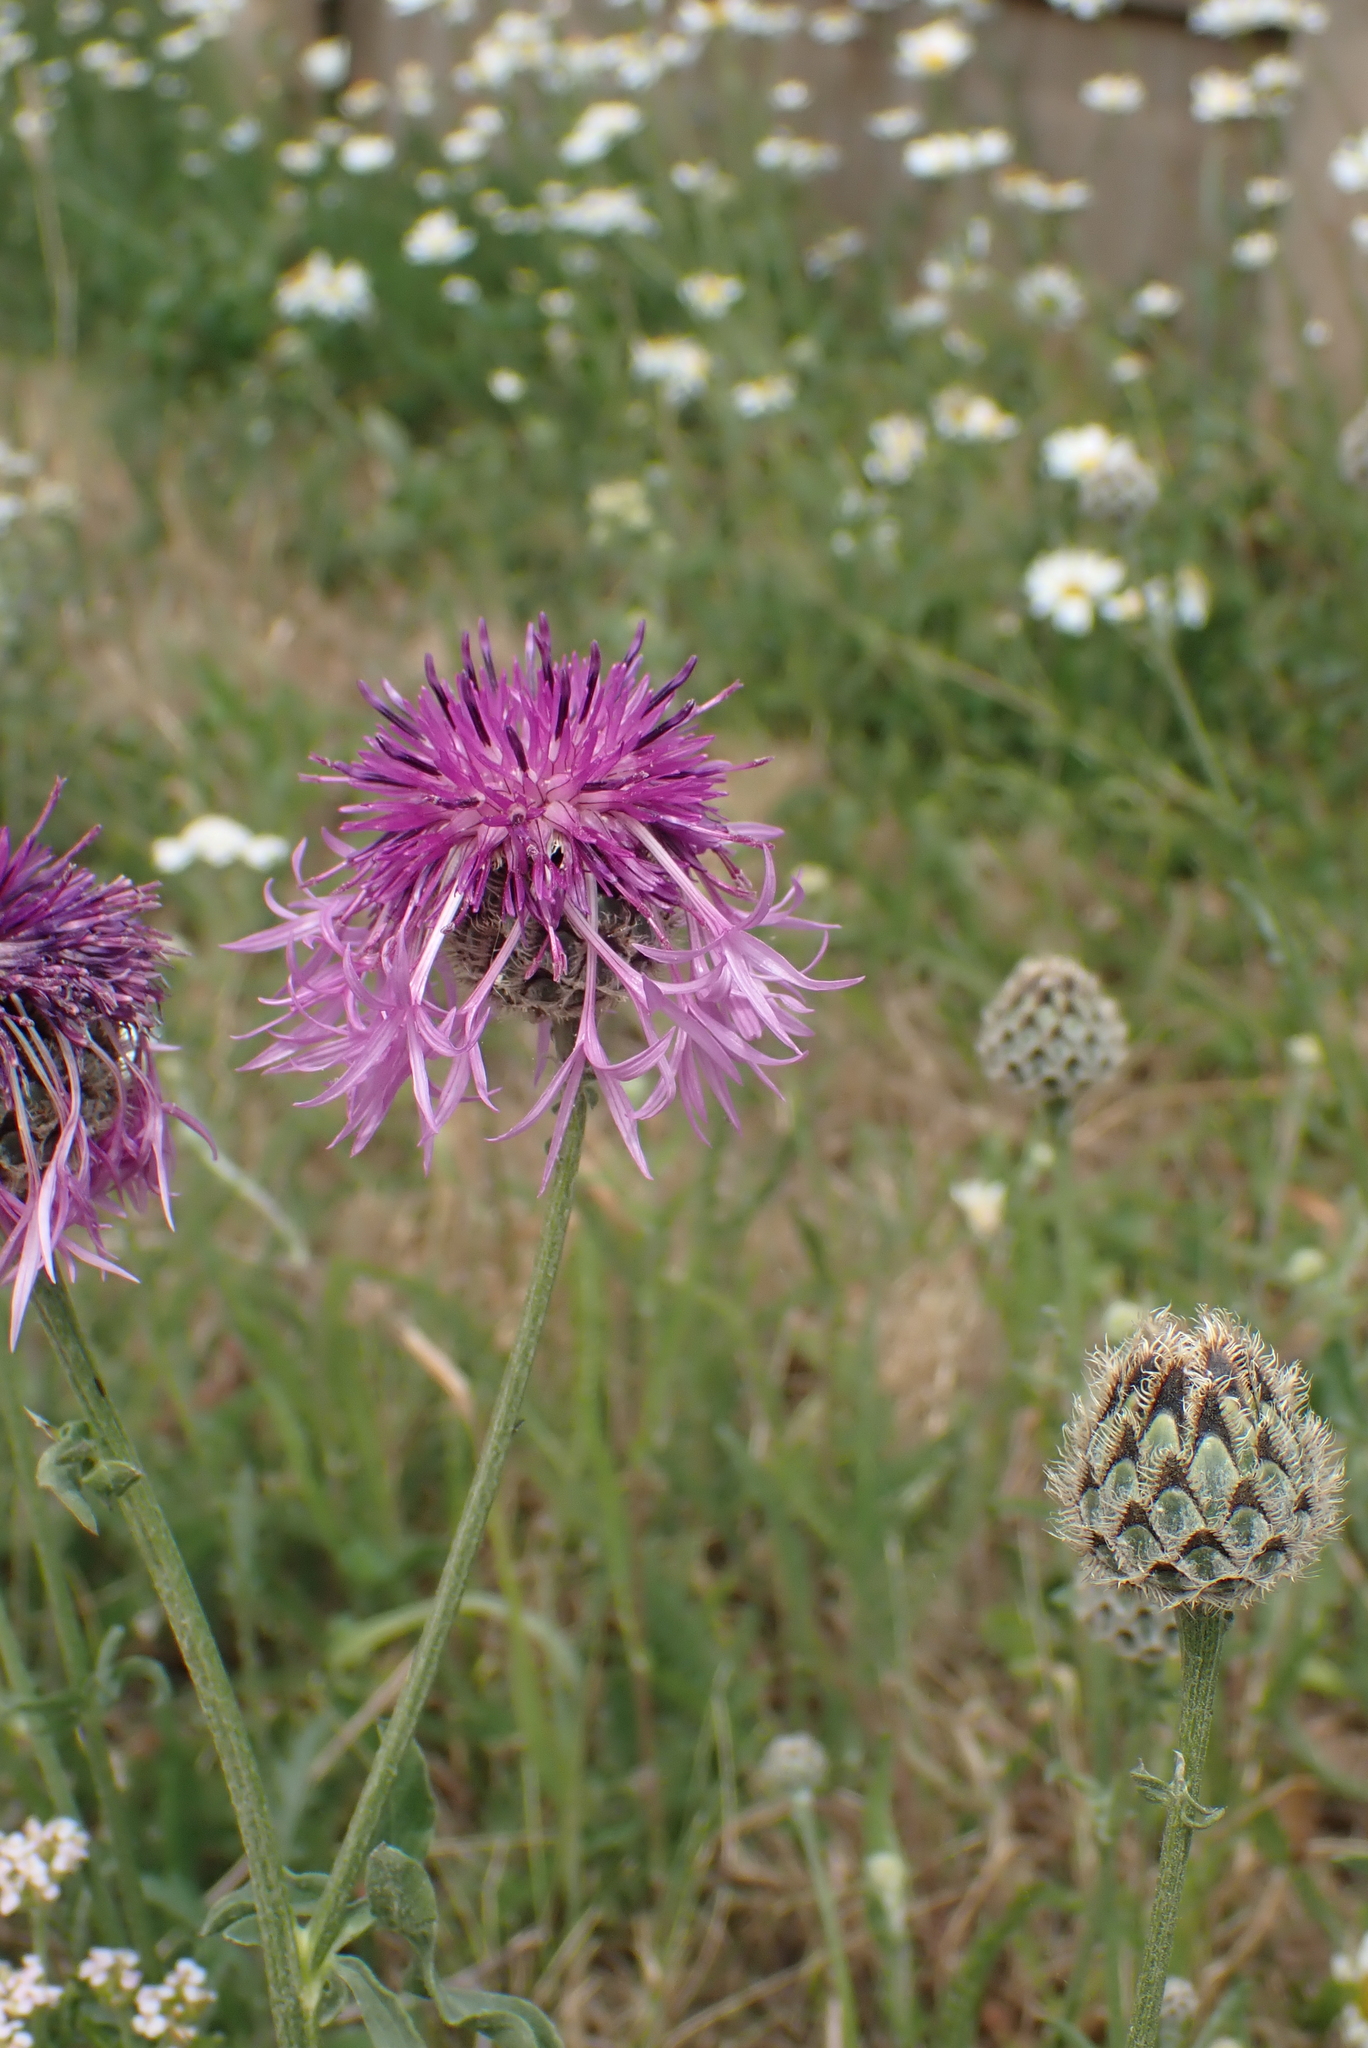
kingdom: Plantae
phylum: Tracheophyta
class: Magnoliopsida
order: Asterales
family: Asteraceae
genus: Centaurea
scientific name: Centaurea scabiosa
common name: Greater knapweed
